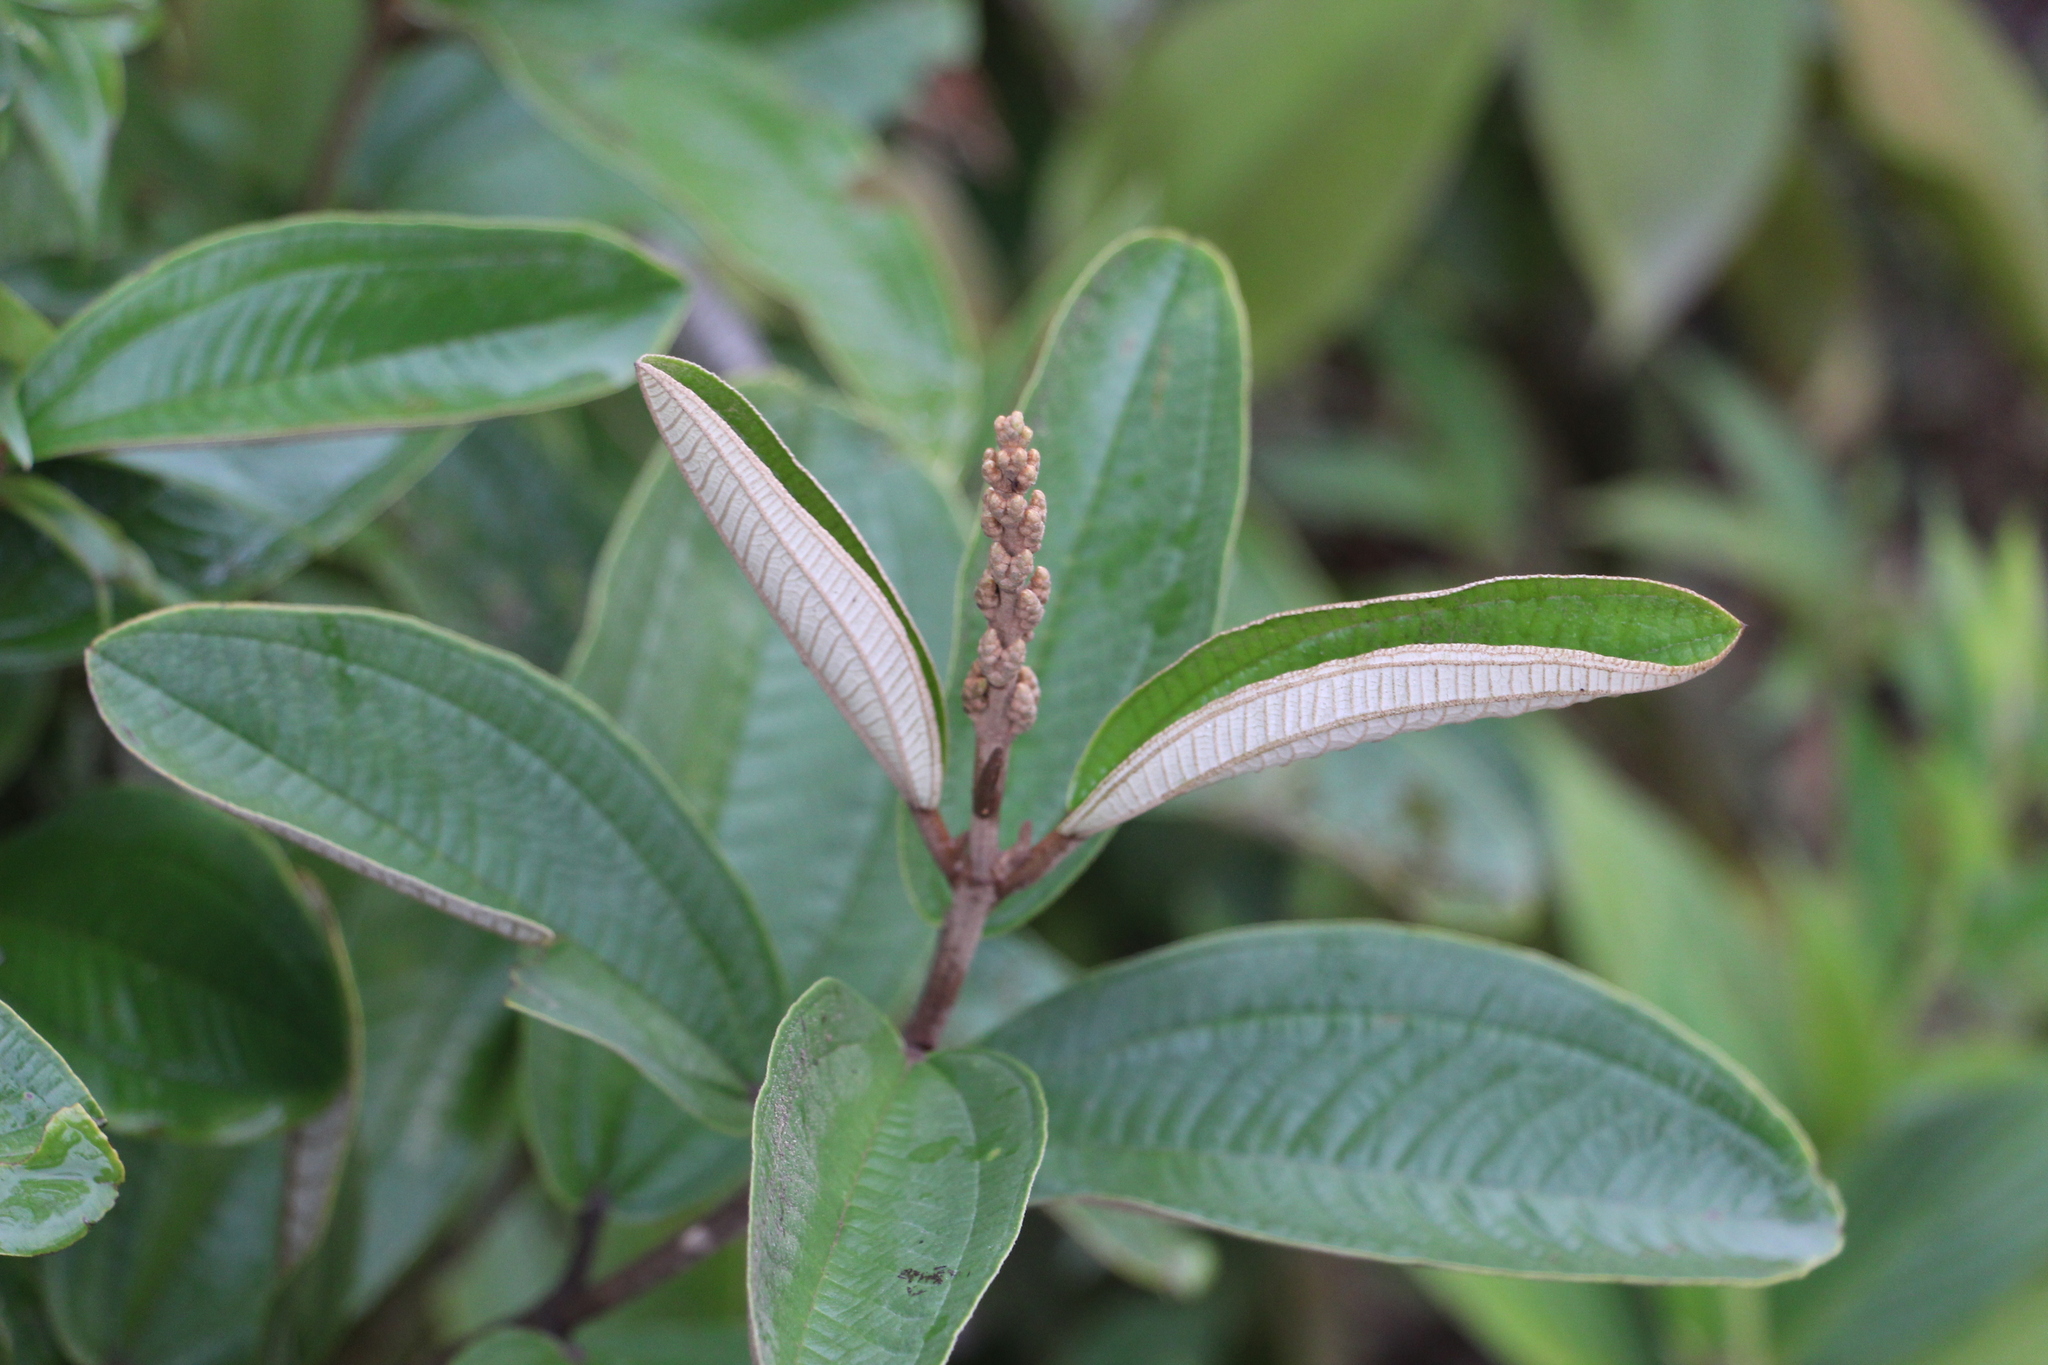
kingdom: Plantae
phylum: Tracheophyta
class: Magnoliopsida
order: Myrtales
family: Melastomataceae
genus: Miconia
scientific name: Miconia stenostachya
